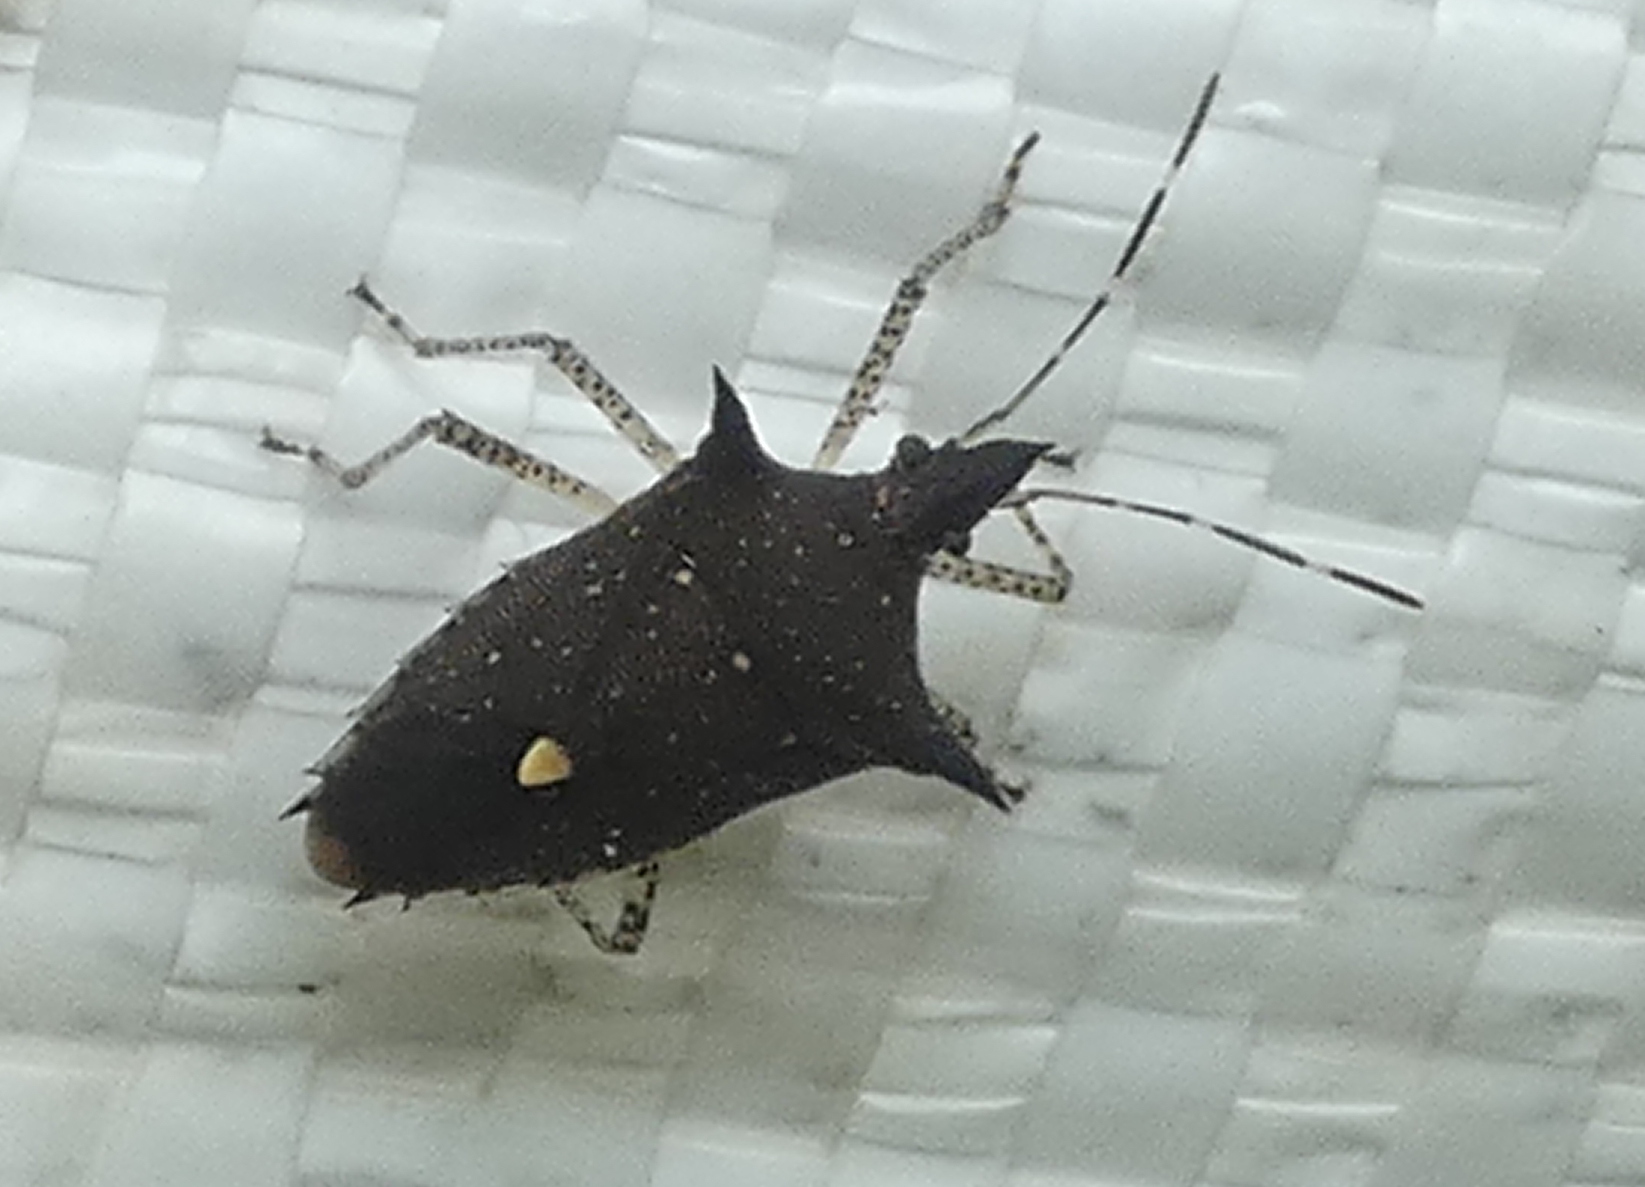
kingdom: Animalia
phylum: Arthropoda
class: Insecta
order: Hemiptera
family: Pentatomidae
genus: Proxys
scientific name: Proxys albopunctulatus
